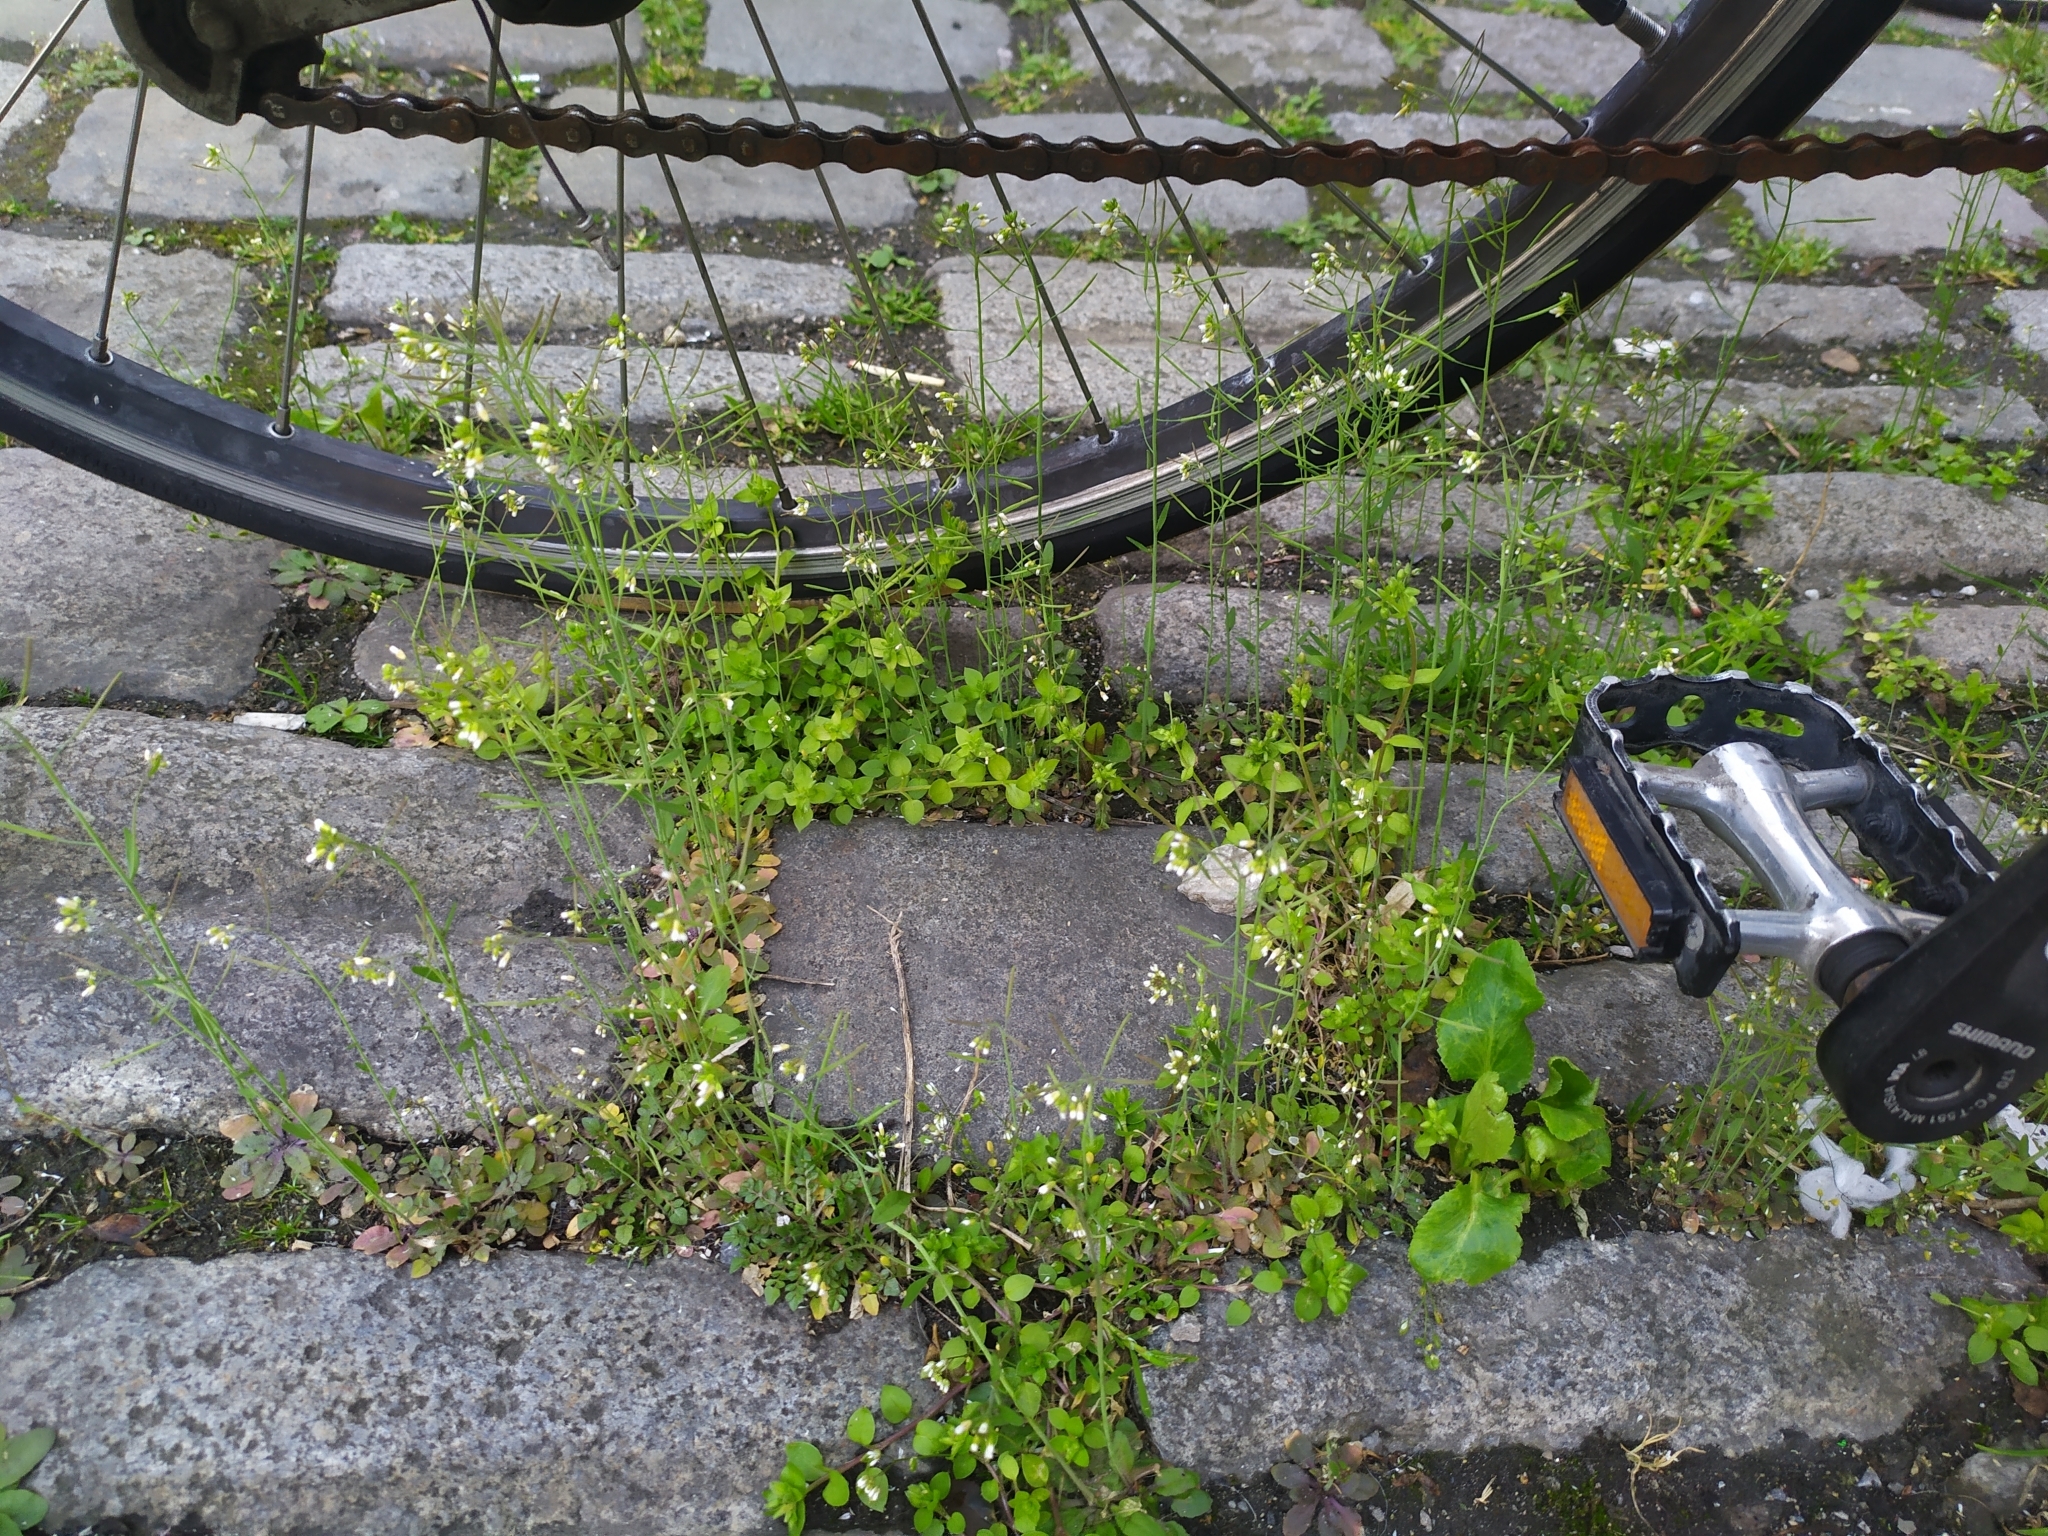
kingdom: Plantae
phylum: Tracheophyta
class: Magnoliopsida
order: Brassicales
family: Brassicaceae
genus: Arabidopsis
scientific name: Arabidopsis thaliana
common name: Thale cress
